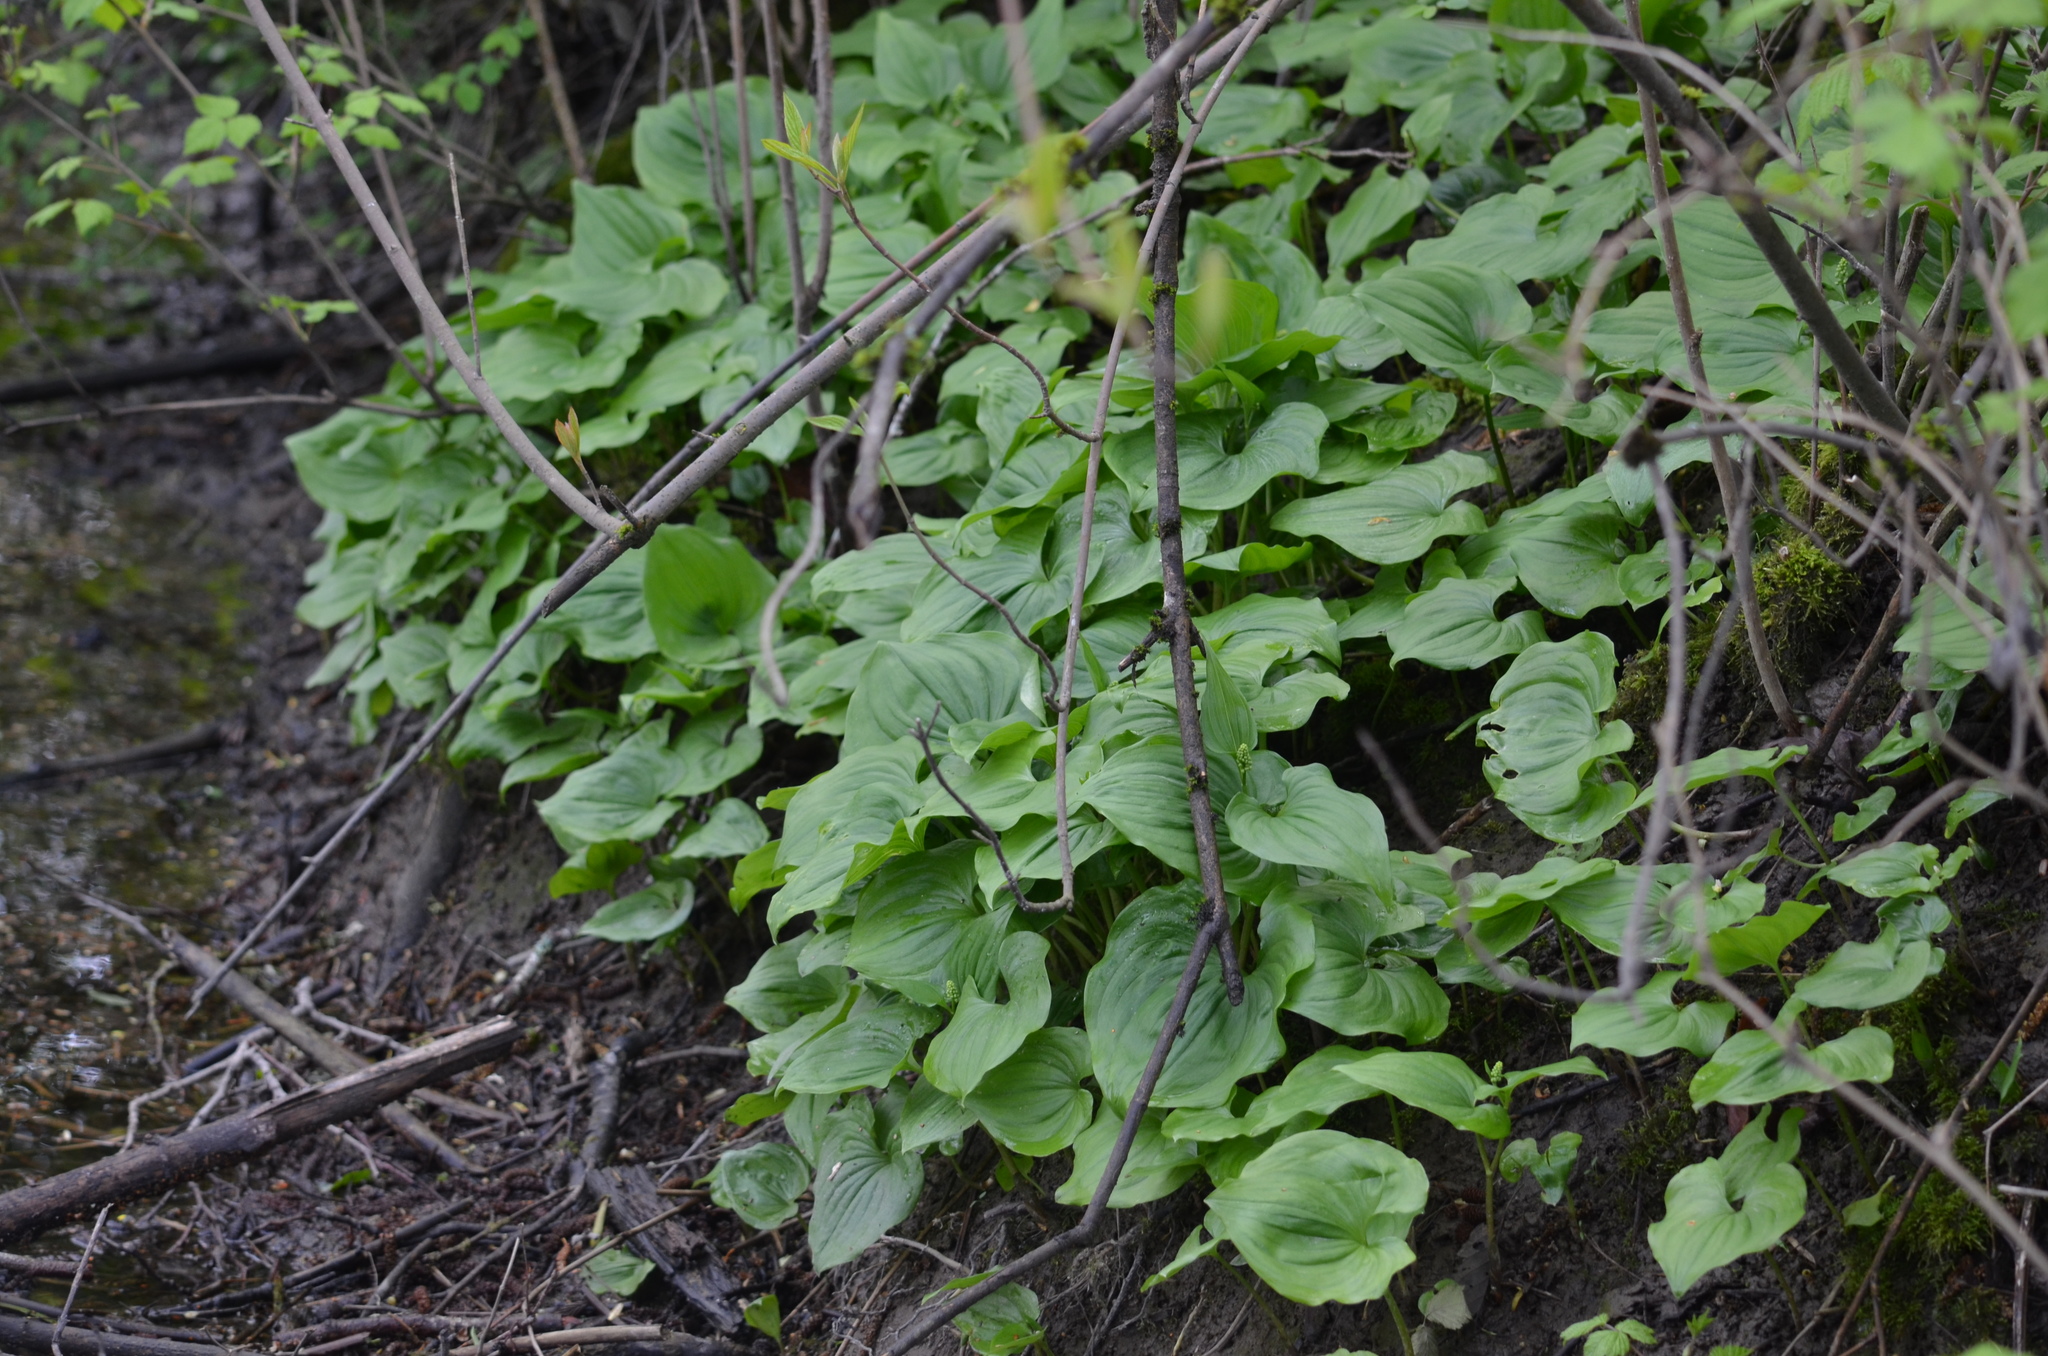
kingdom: Plantae
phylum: Tracheophyta
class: Liliopsida
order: Asparagales
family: Asparagaceae
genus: Maianthemum
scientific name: Maianthemum dilatatum
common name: False lily-of-the-valley
